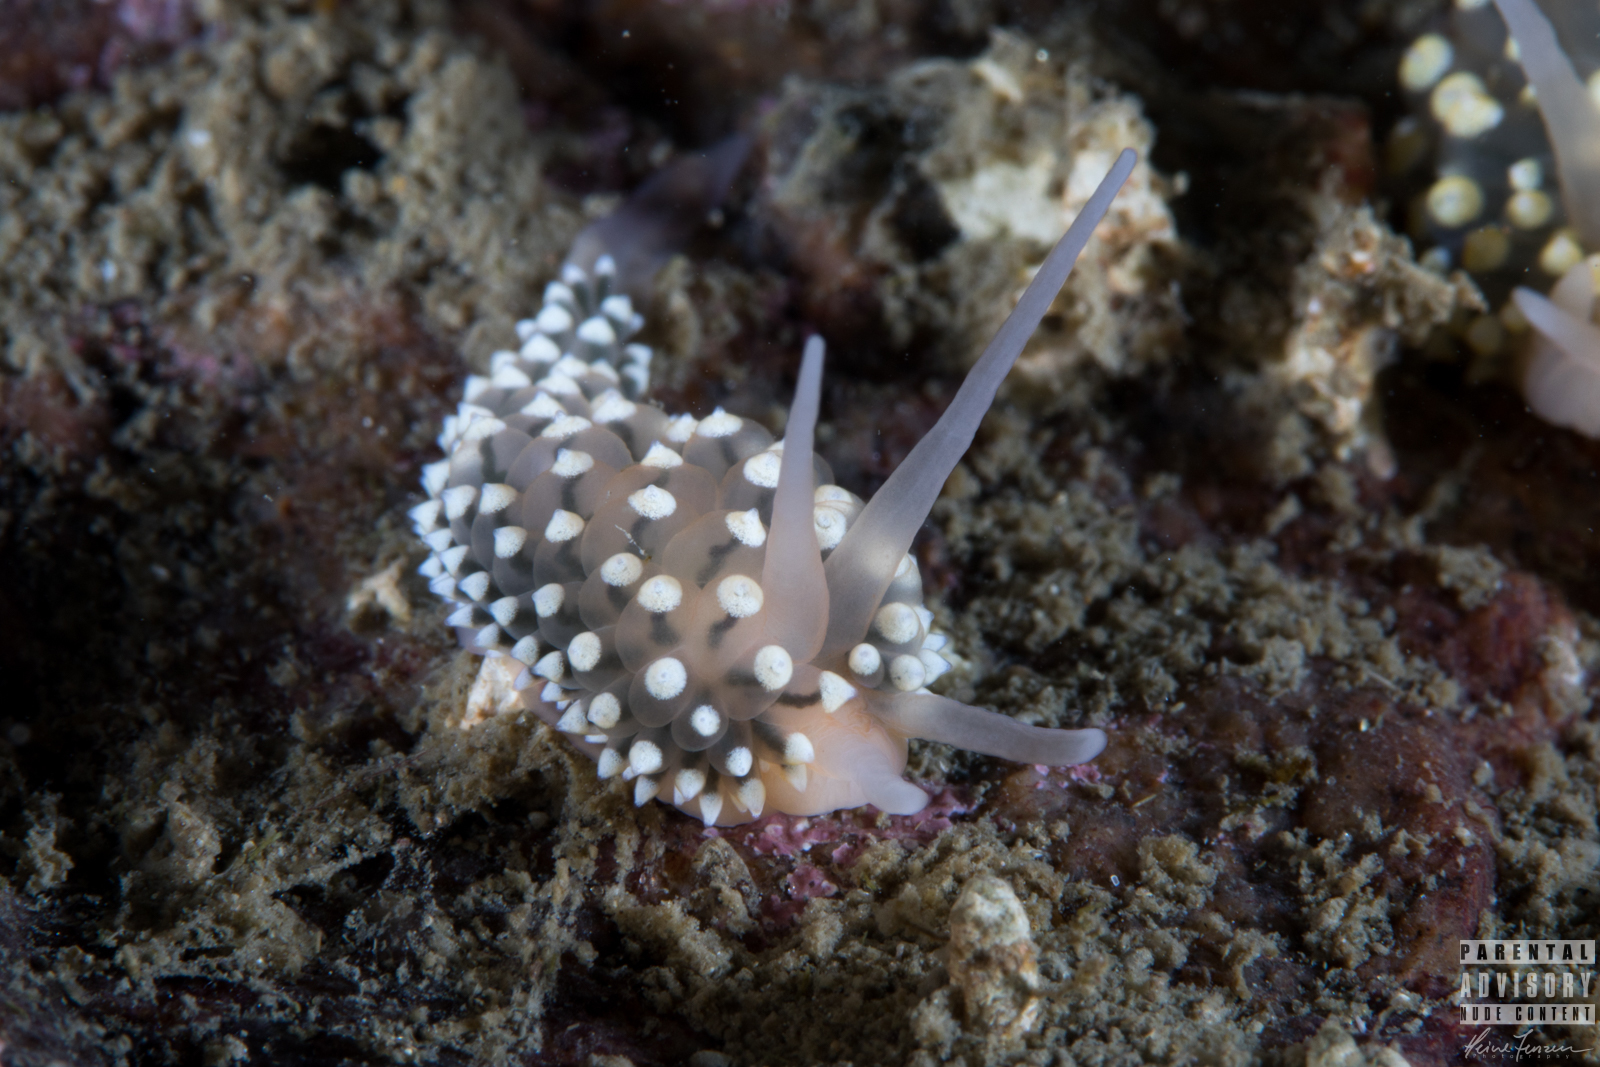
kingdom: Animalia
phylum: Mollusca
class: Gastropoda
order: Nudibranchia
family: Eubranchidae
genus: Eubranchus
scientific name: Eubranchus tricolor
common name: Painted balloon aeolis
